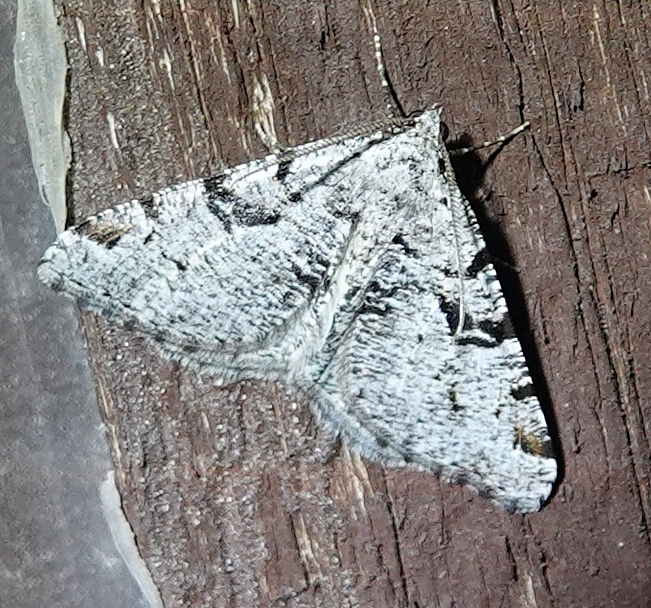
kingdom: Animalia
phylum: Arthropoda
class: Insecta
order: Lepidoptera
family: Geometridae
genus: Macaria
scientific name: Macaria bitactata
